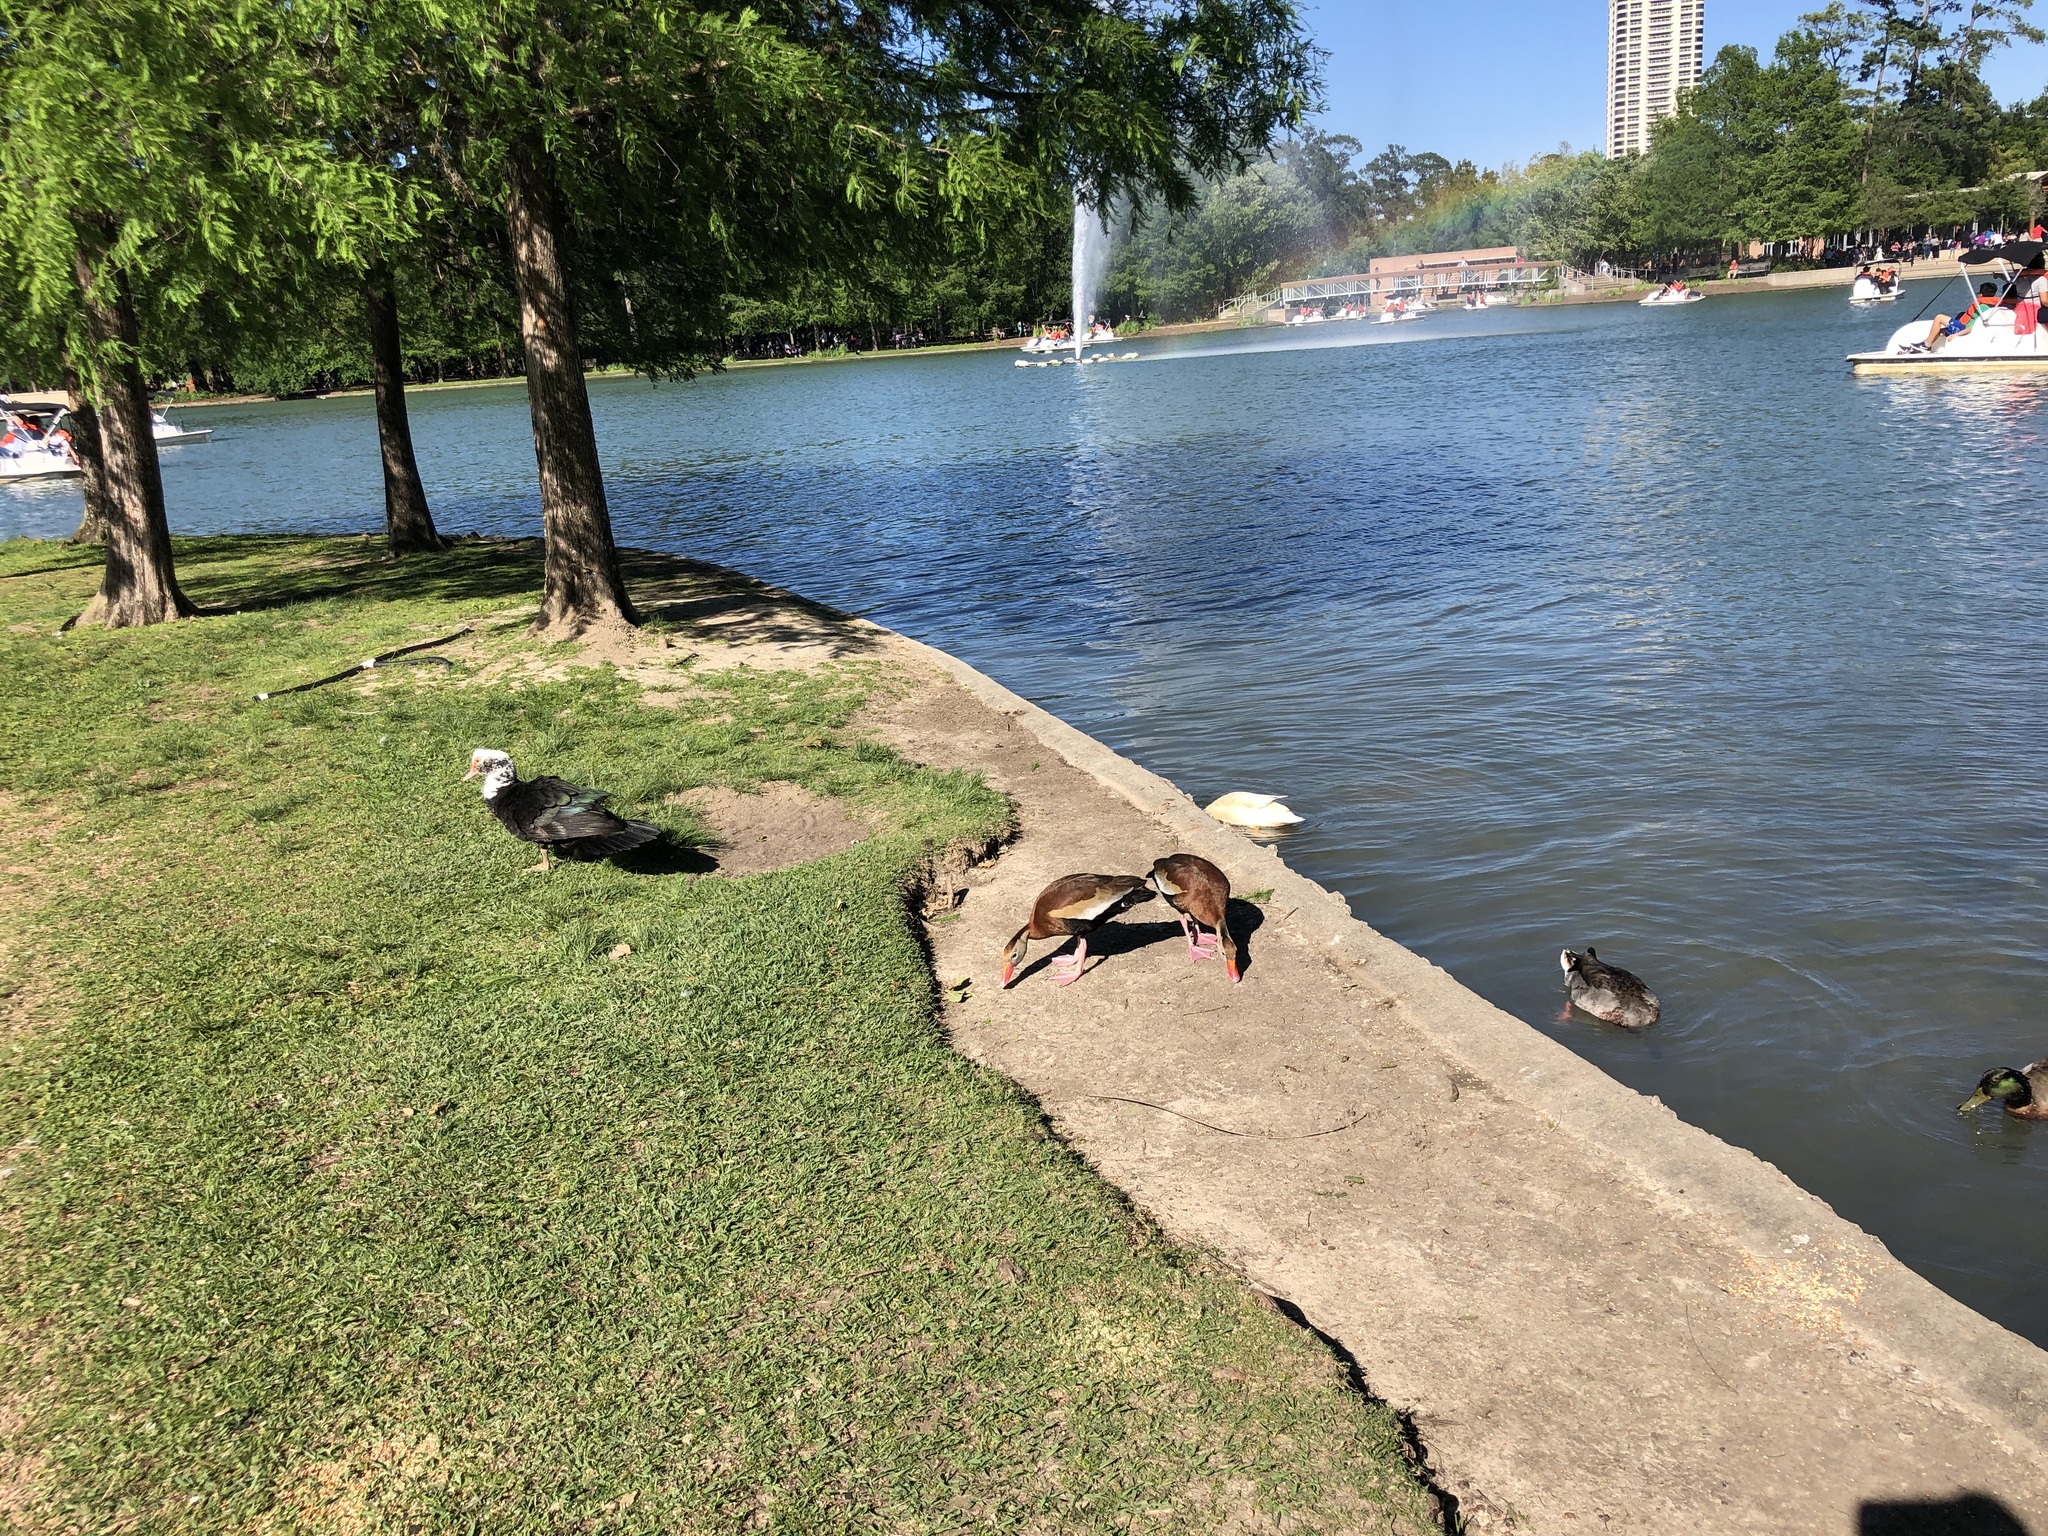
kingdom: Animalia
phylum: Chordata
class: Aves
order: Anseriformes
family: Anatidae
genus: Anas
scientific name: Anas platyrhynchos
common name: Mallard
